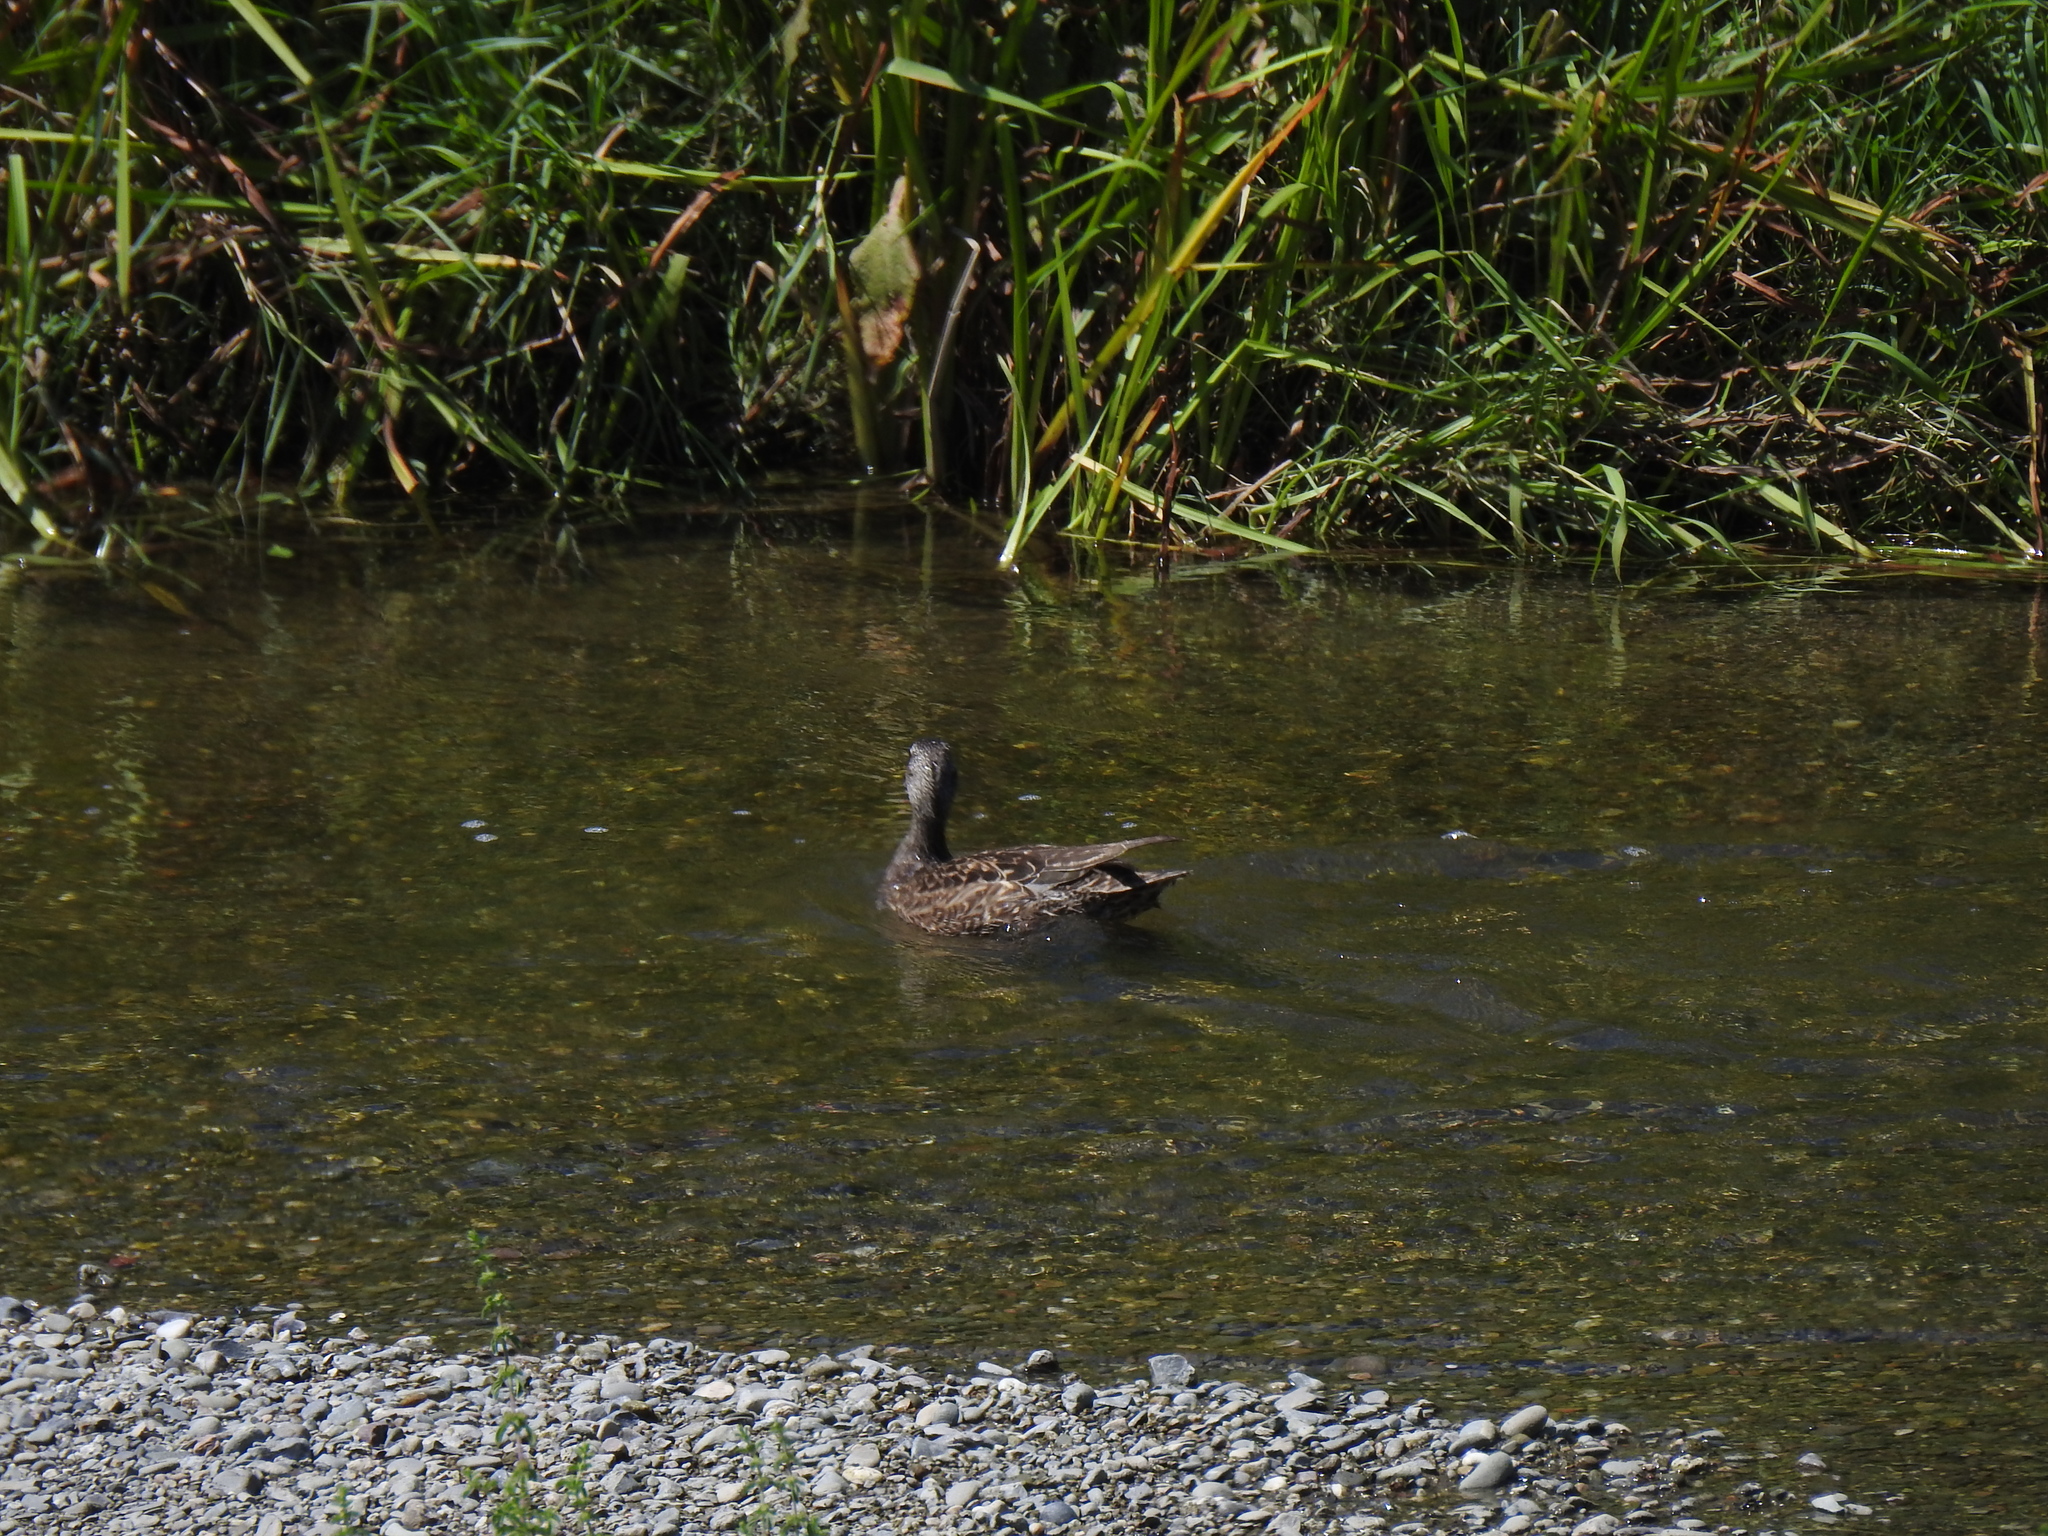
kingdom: Animalia
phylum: Chordata
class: Aves
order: Anseriformes
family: Anatidae
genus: Mareca
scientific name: Mareca strepera
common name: Gadwall
